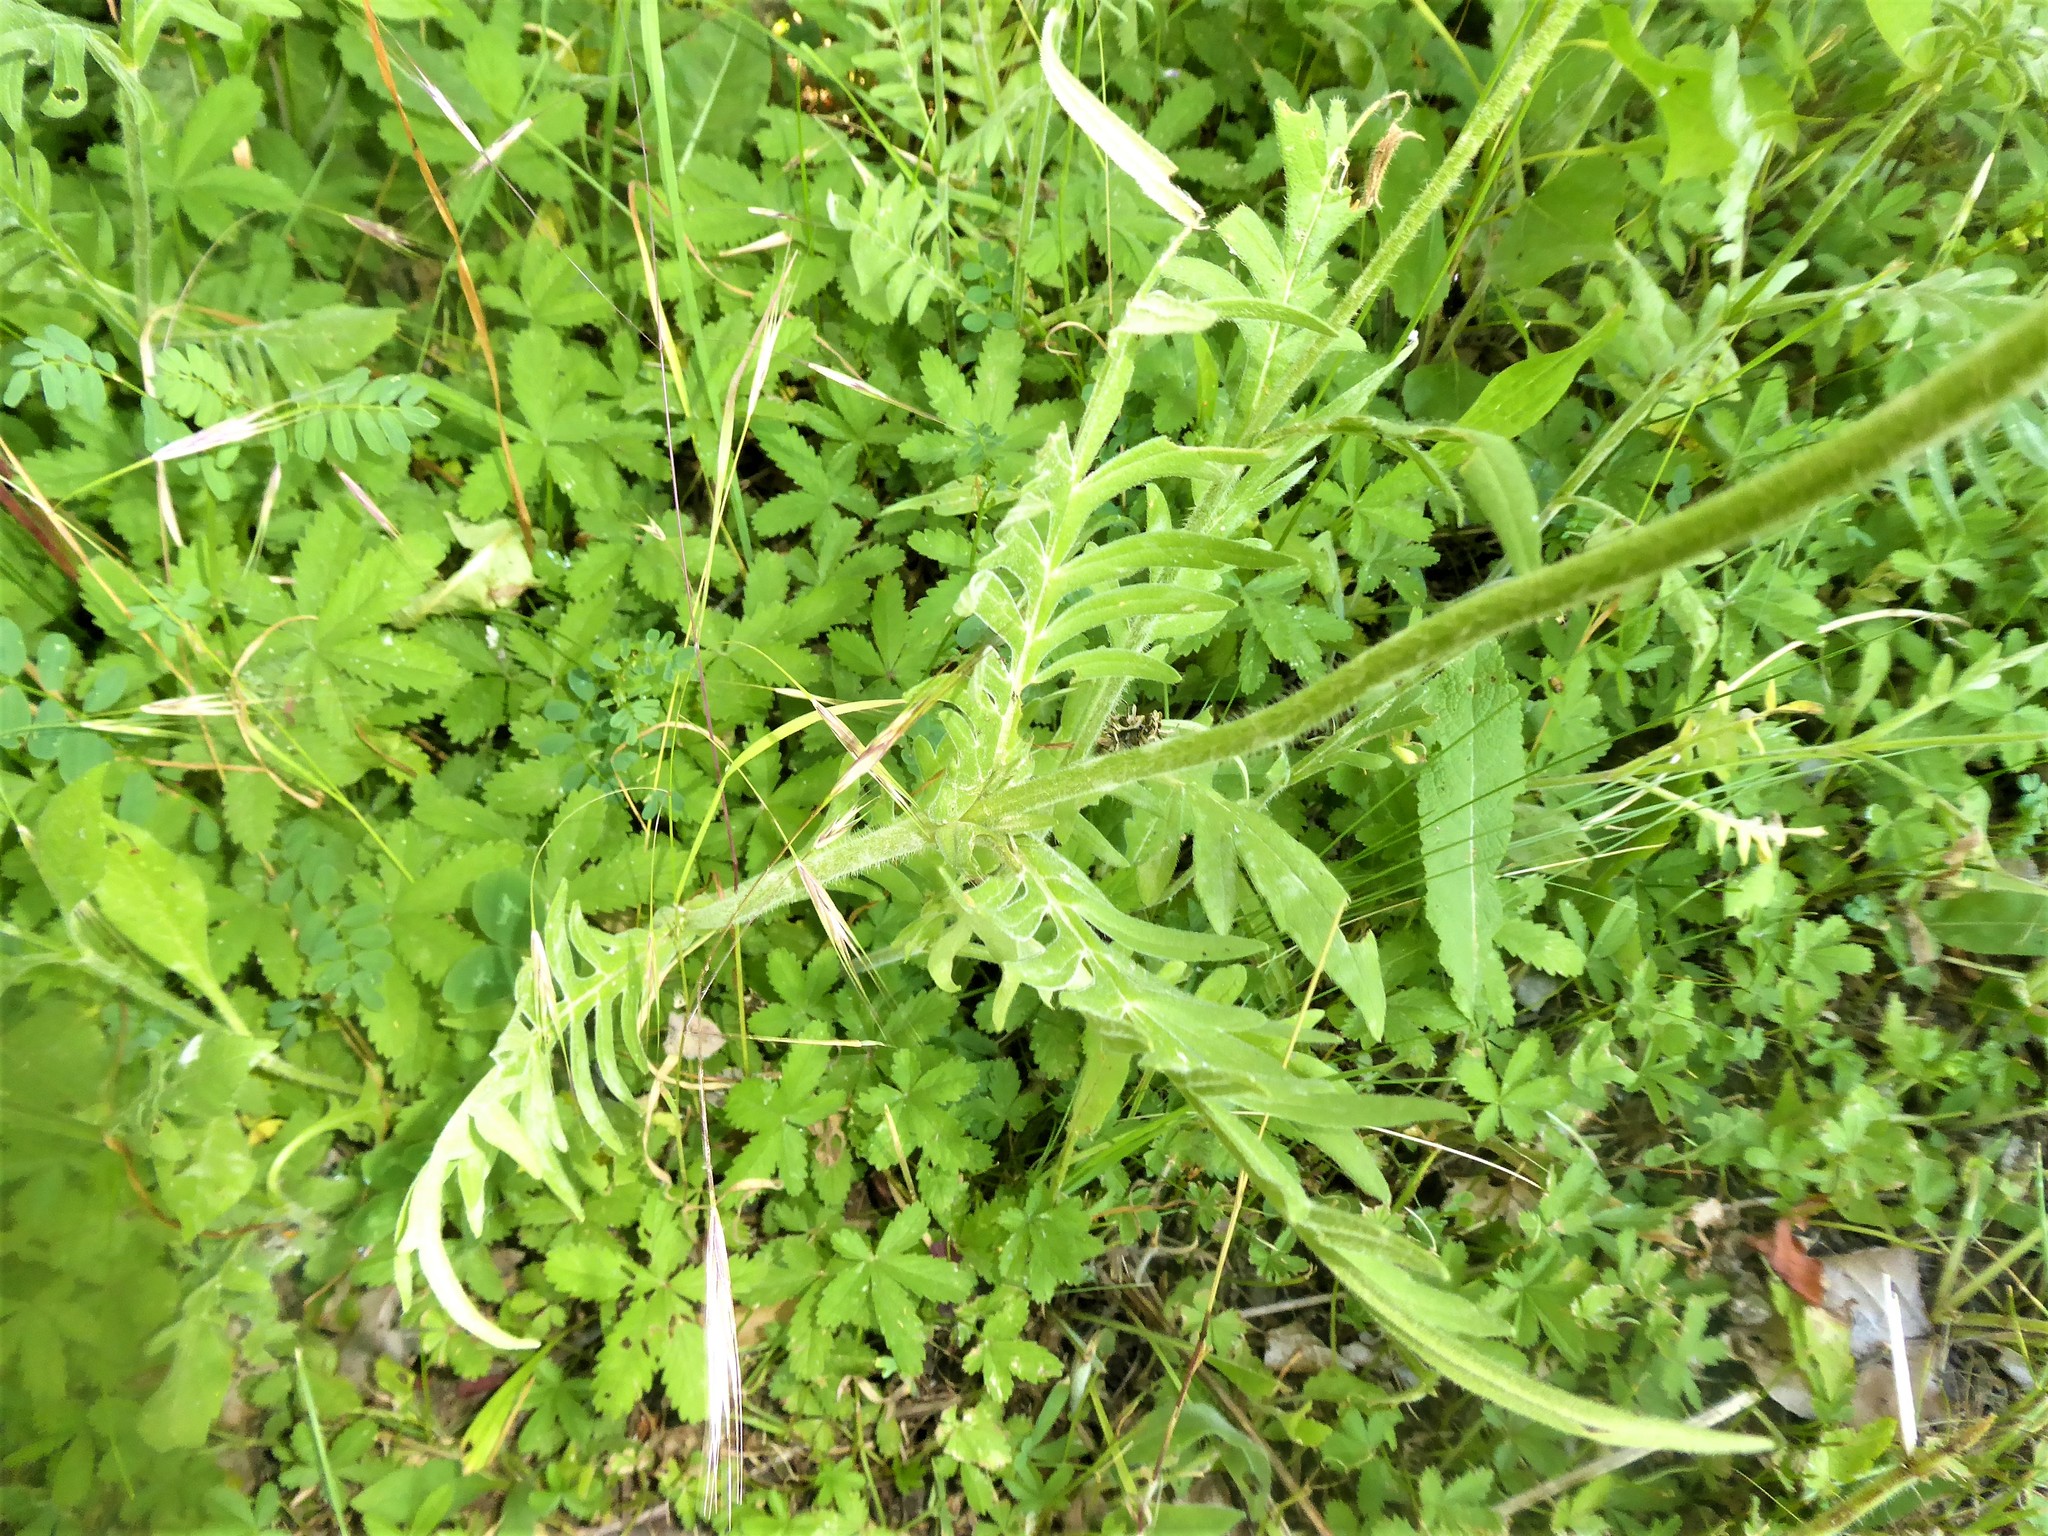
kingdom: Plantae
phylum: Tracheophyta
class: Magnoliopsida
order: Dipsacales
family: Caprifoliaceae
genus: Knautia
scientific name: Knautia arvensis
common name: Field scabiosa
